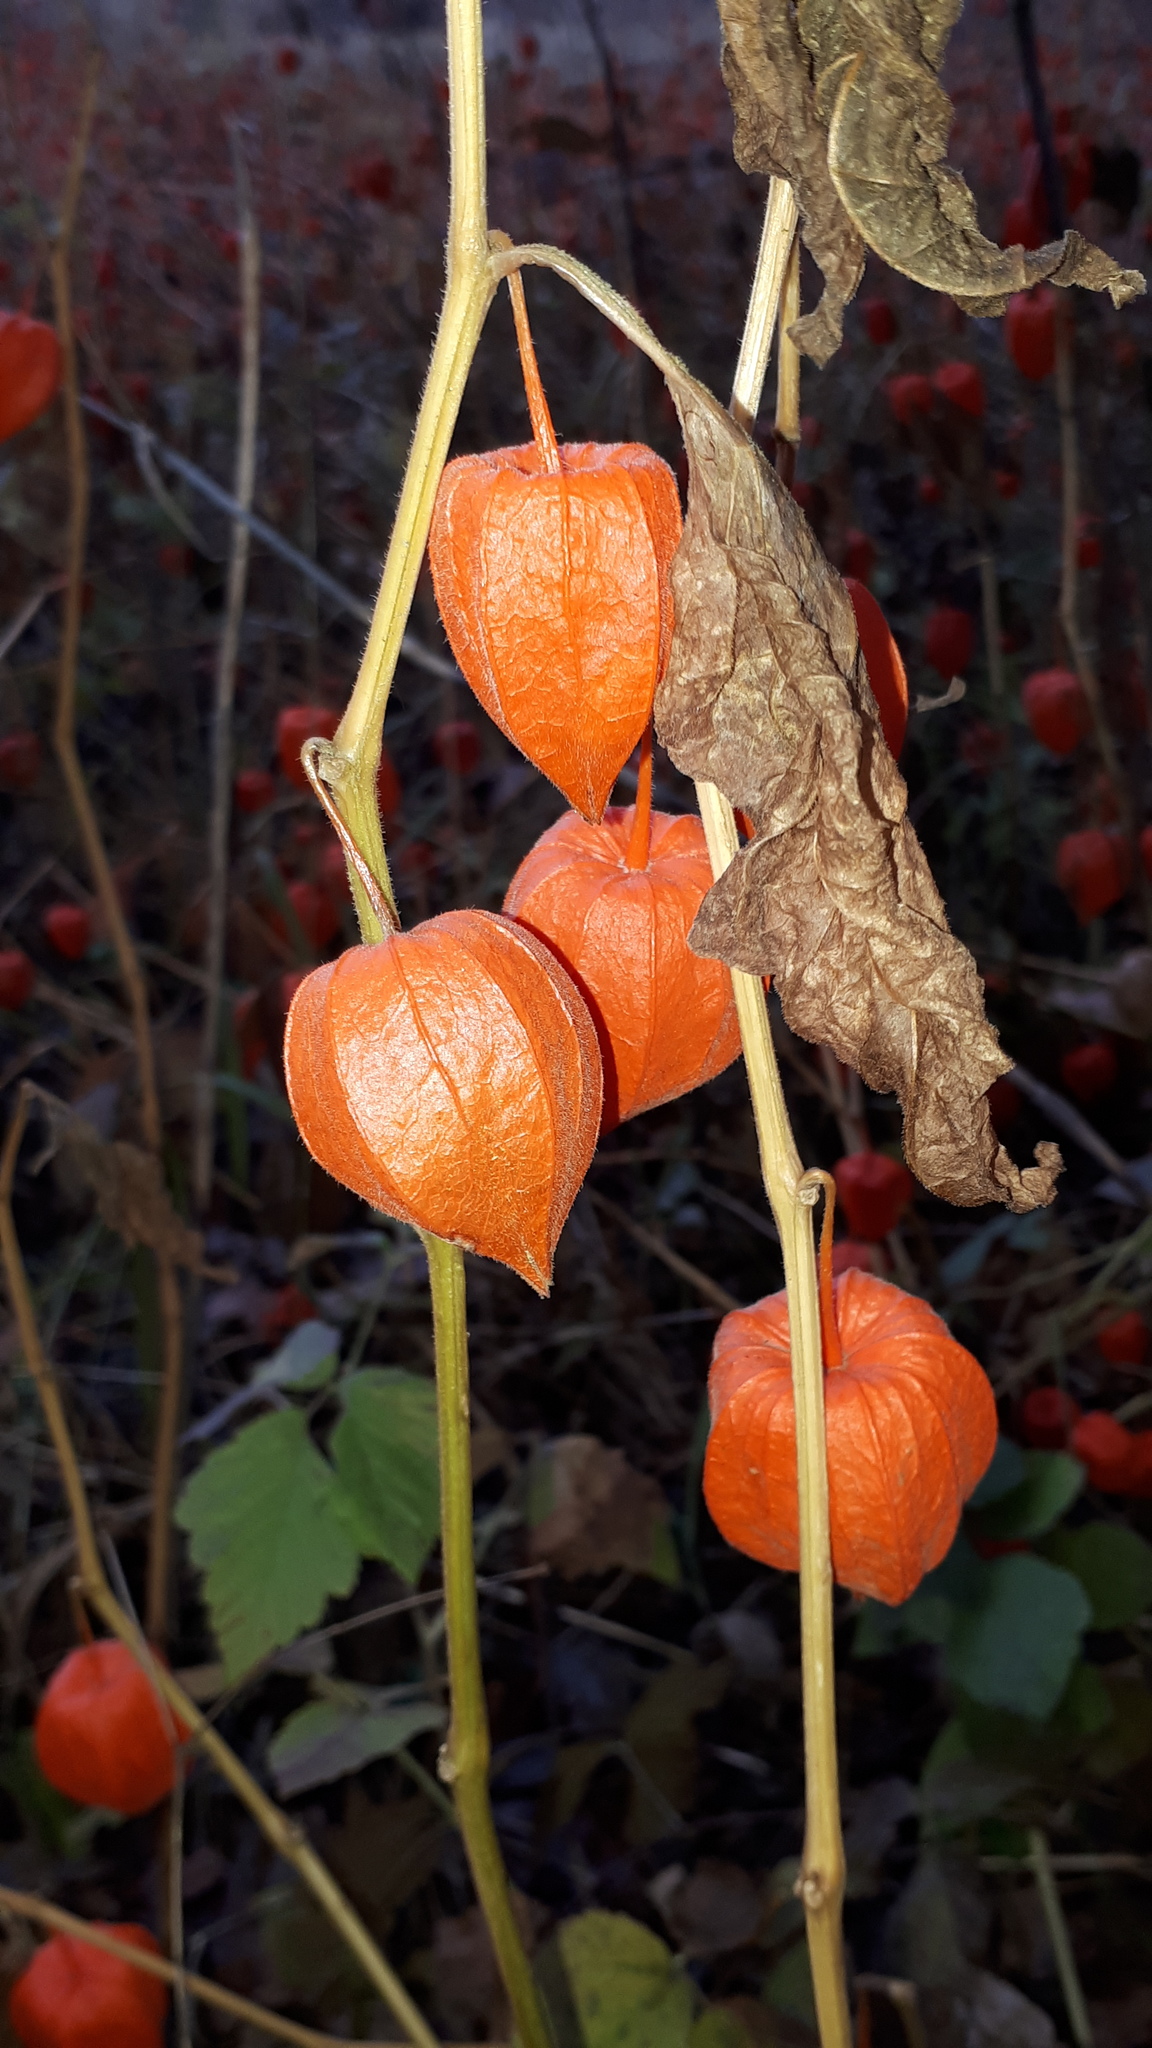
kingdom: Plantae
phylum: Tracheophyta
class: Magnoliopsida
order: Solanales
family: Solanaceae
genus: Alkekengi
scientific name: Alkekengi officinarum
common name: Japanese-lantern
